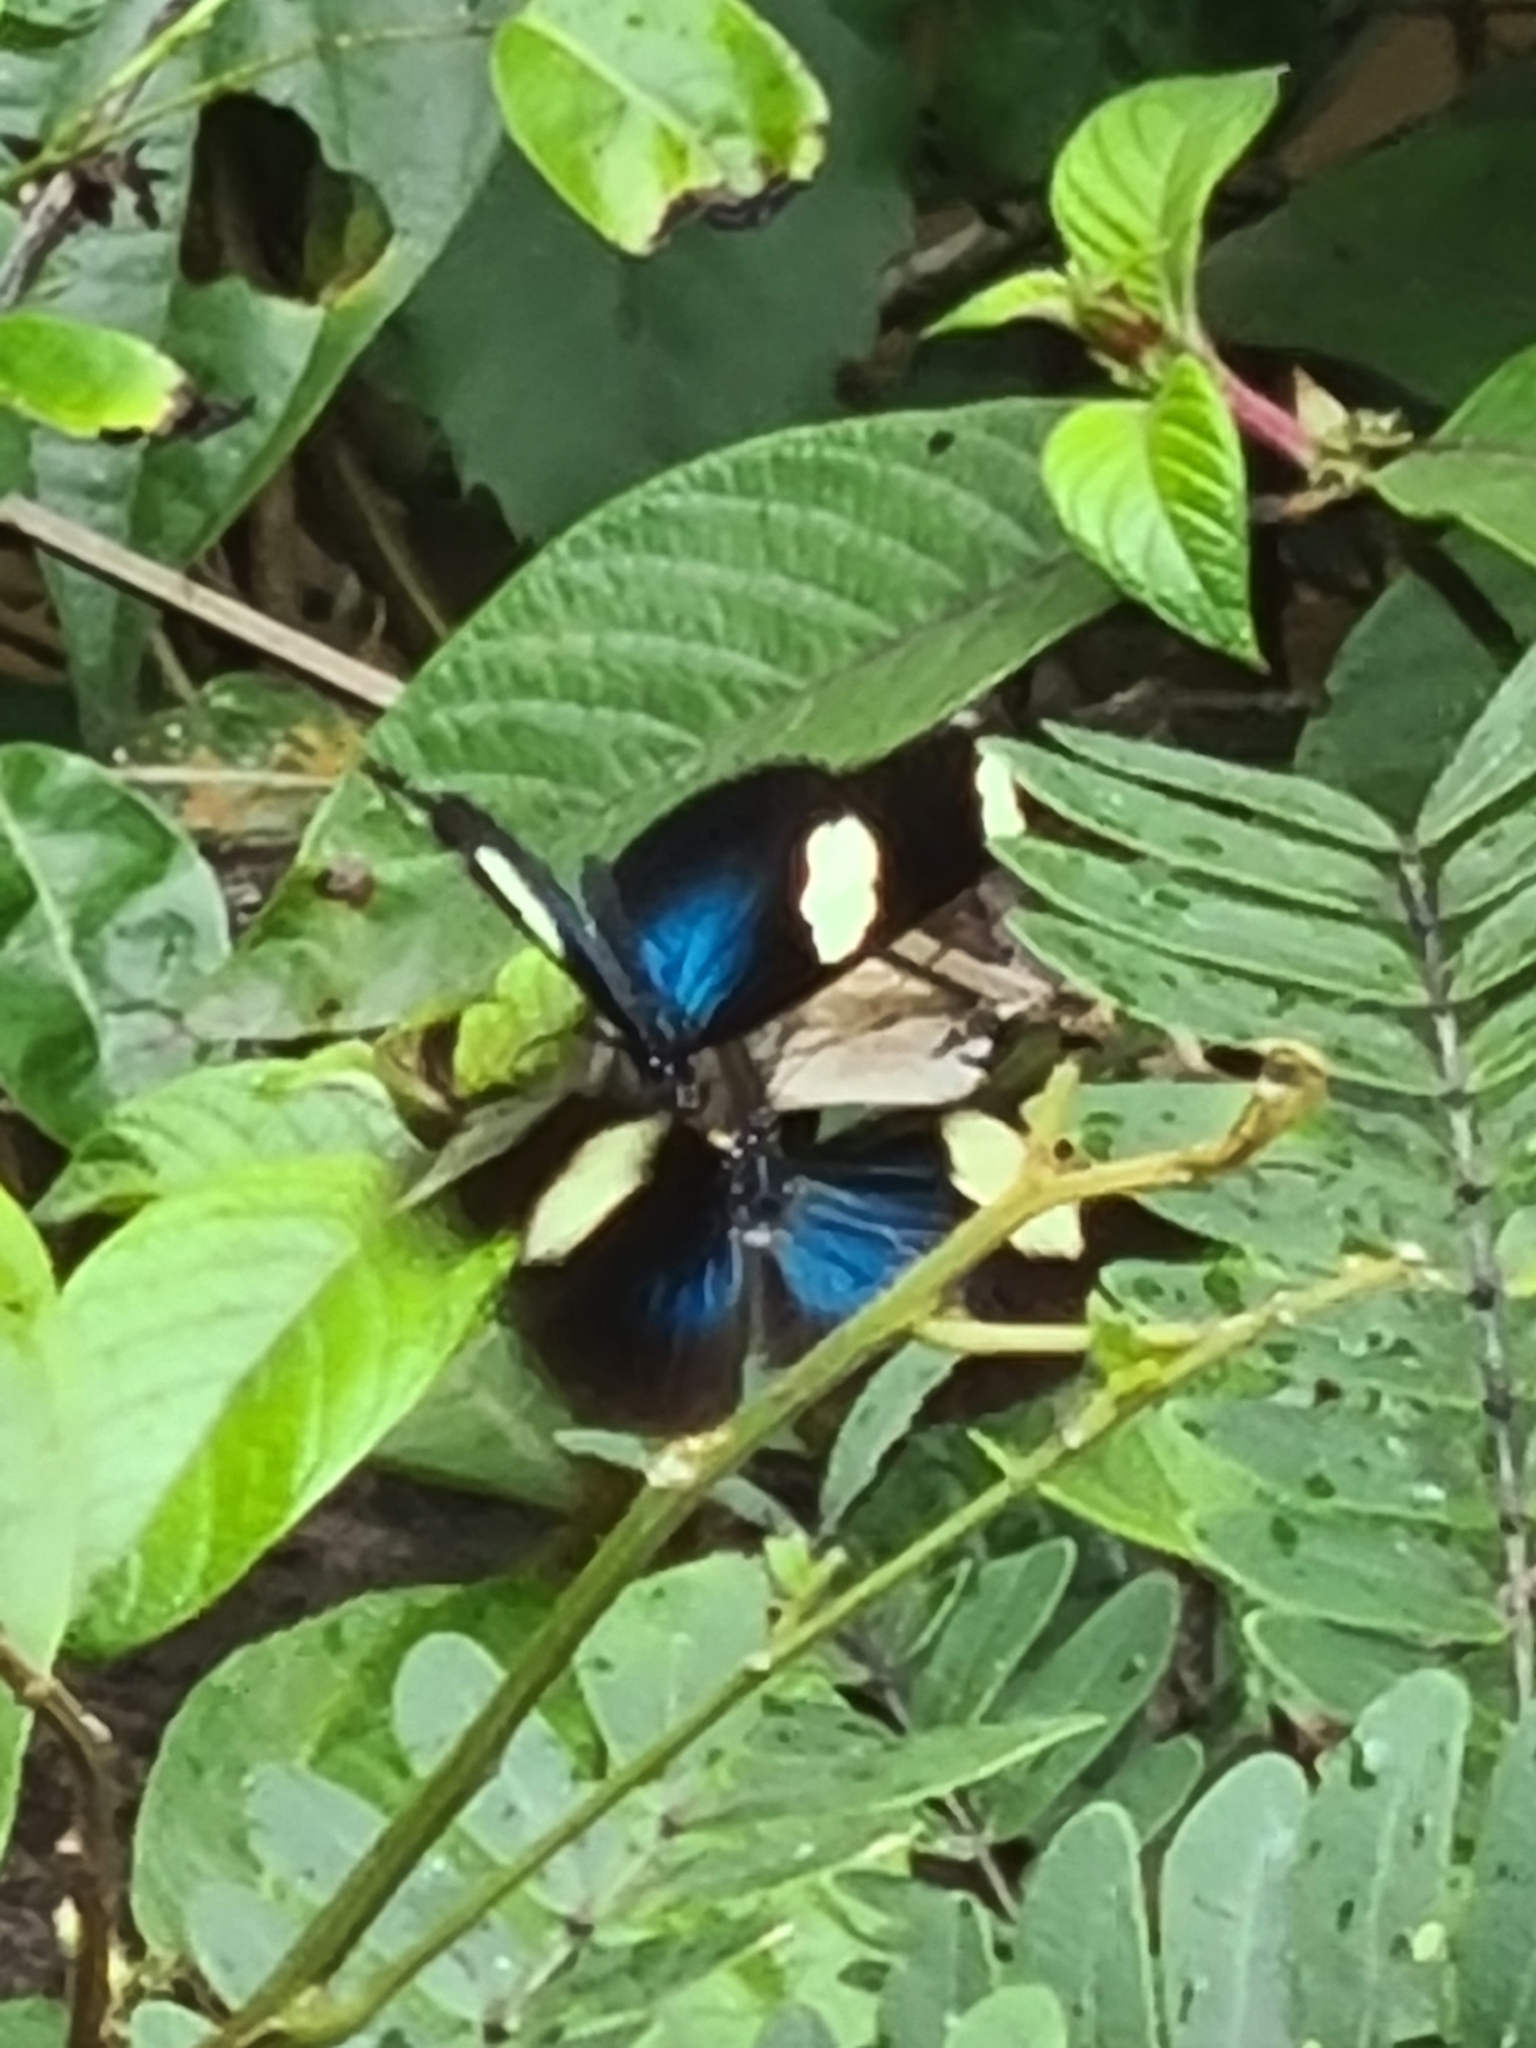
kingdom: Animalia
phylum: Arthropoda
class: Insecta
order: Lepidoptera
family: Nymphalidae
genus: Heliconius
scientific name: Heliconius sara
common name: Sara longwing
